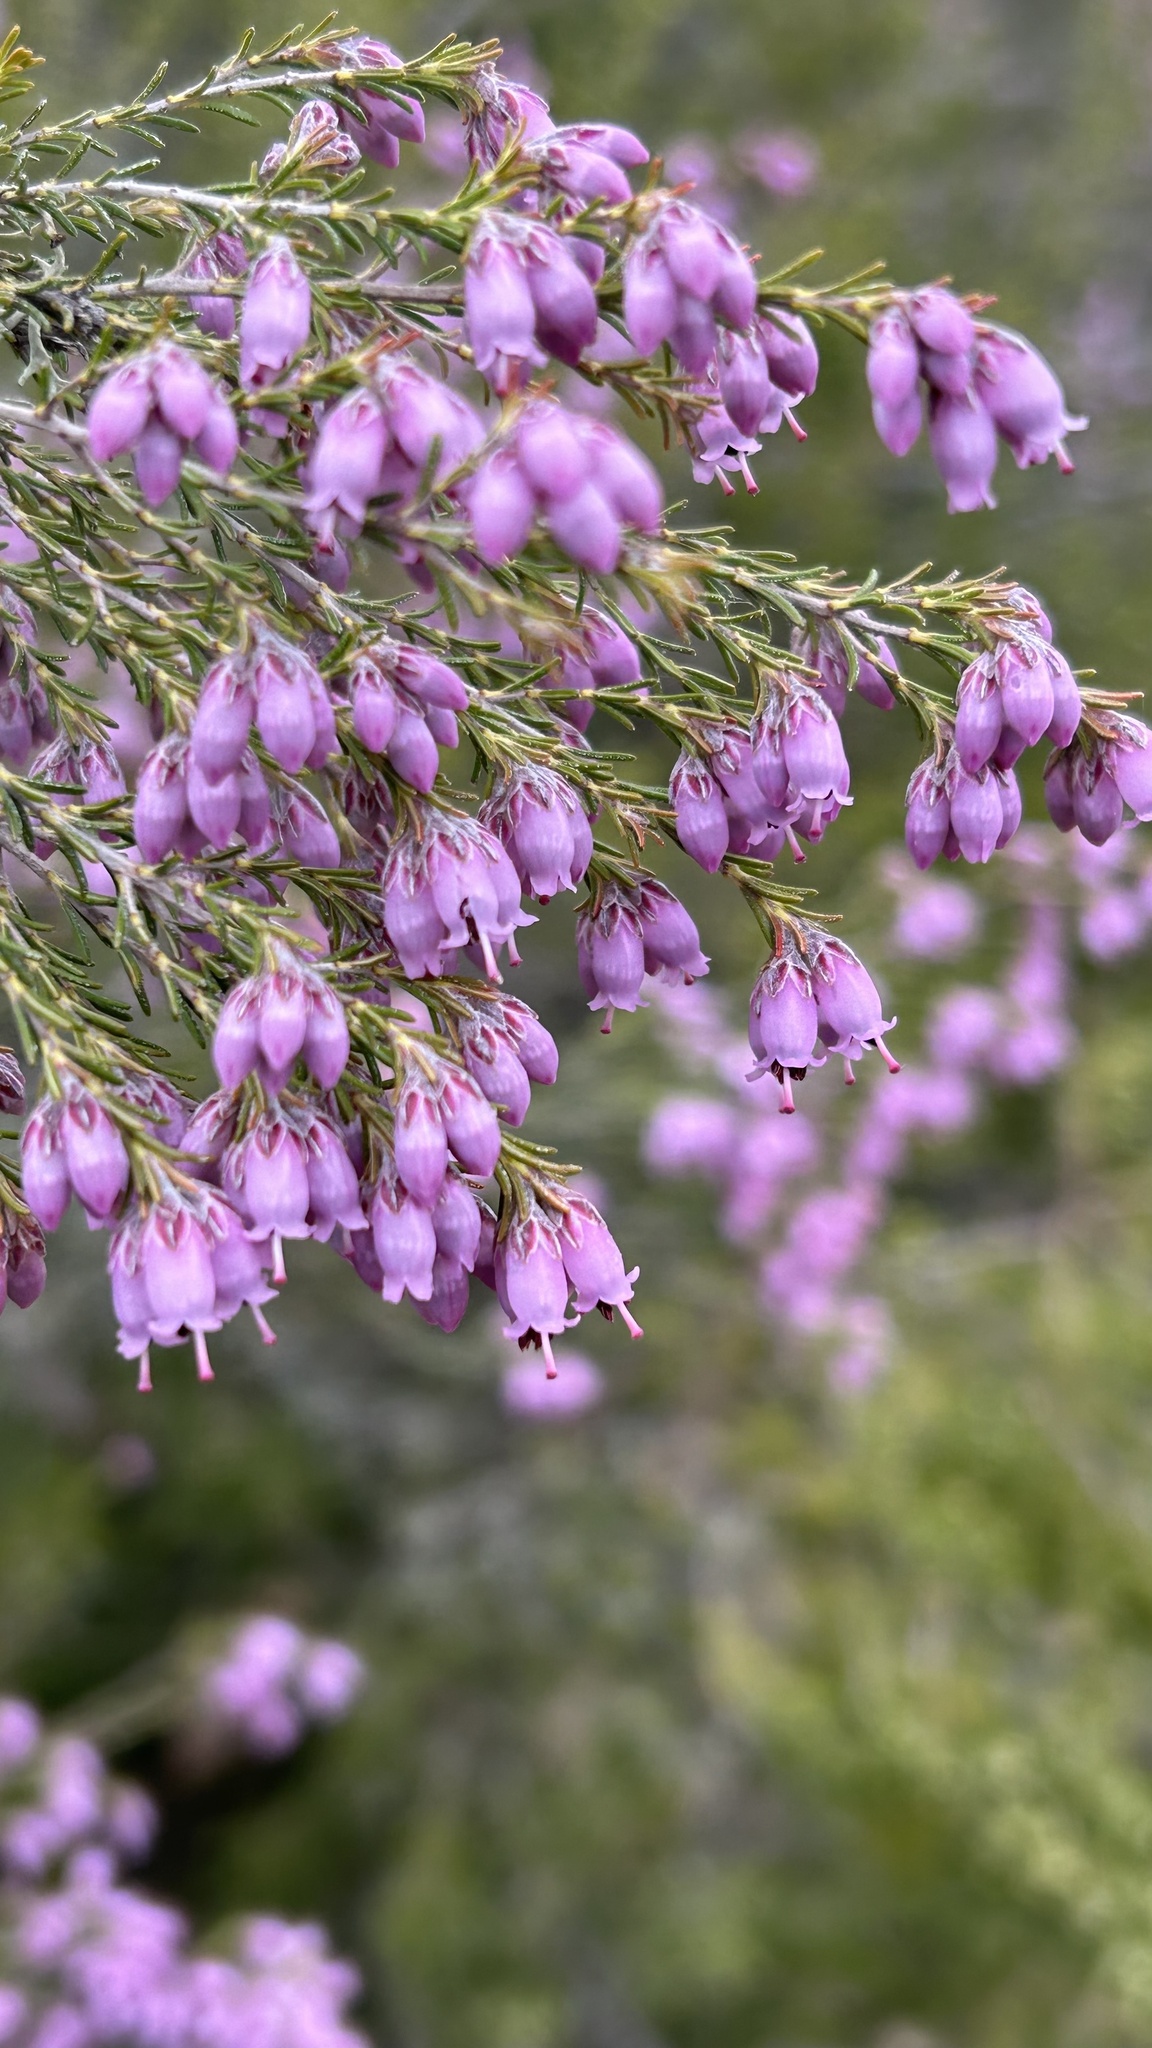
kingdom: Plantae
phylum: Tracheophyta
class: Magnoliopsida
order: Ericales
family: Ericaceae
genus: Erica
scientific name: Erica australis
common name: Spanish heath
